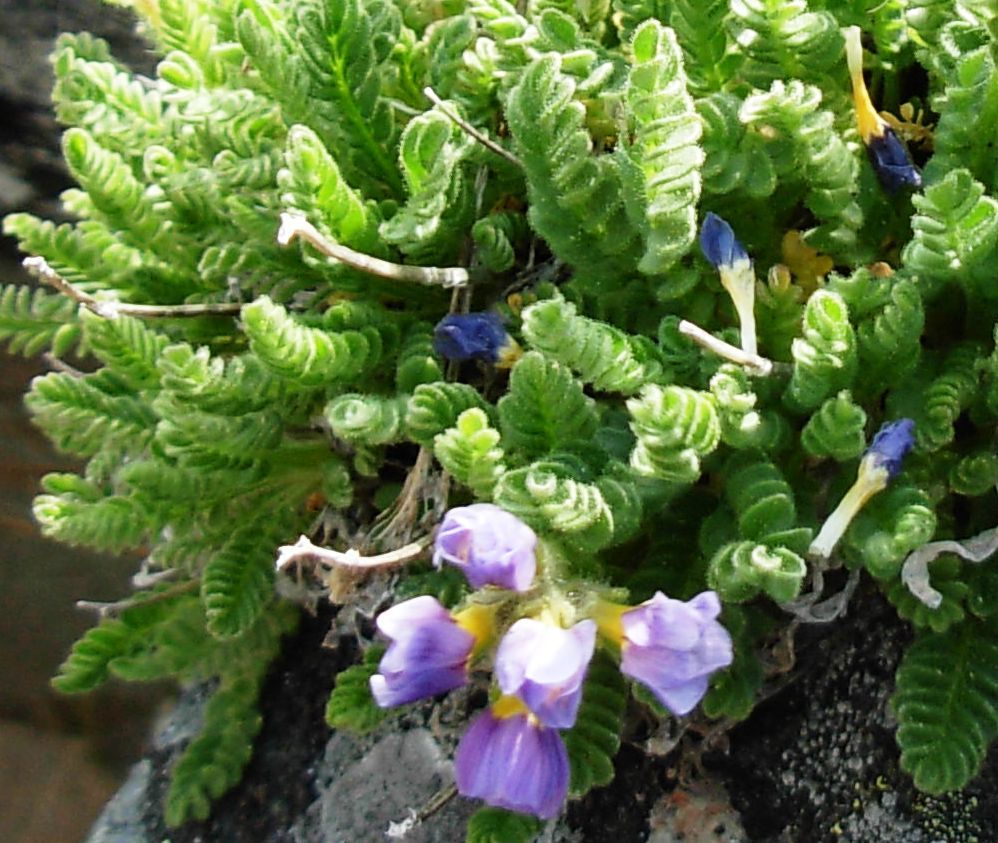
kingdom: Plantae
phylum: Tracheophyta
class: Magnoliopsida
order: Ericales
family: Polemoniaceae
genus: Polemonium
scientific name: Polemonium elegans
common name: Elegant jacob's-ladder
